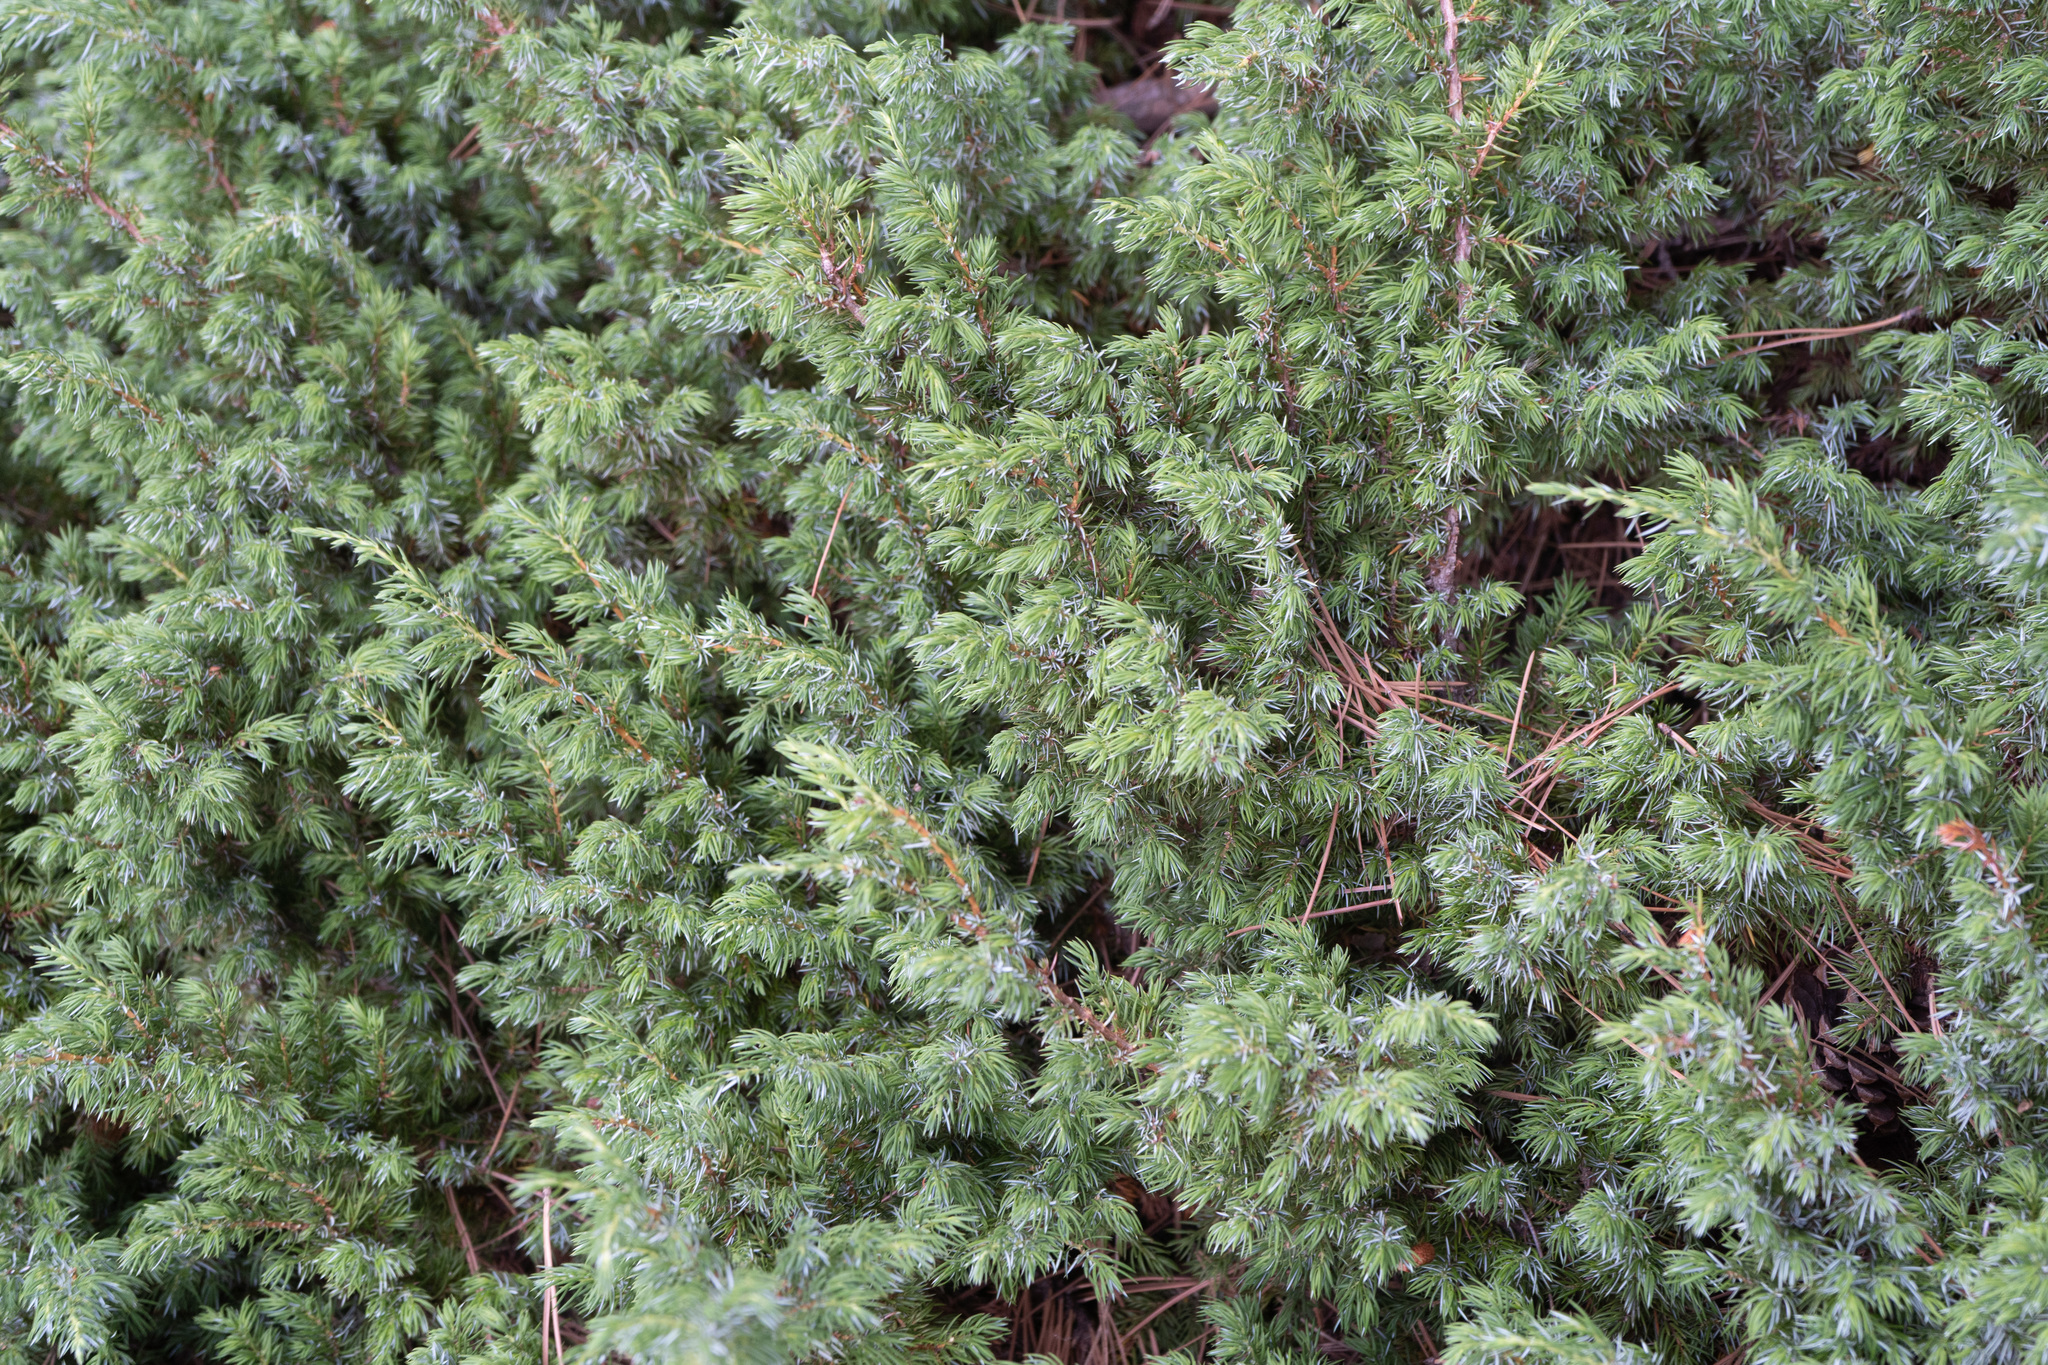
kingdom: Plantae
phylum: Tracheophyta
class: Pinopsida
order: Pinales
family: Cupressaceae
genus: Juniperus
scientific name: Juniperus communis
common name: Common juniper
